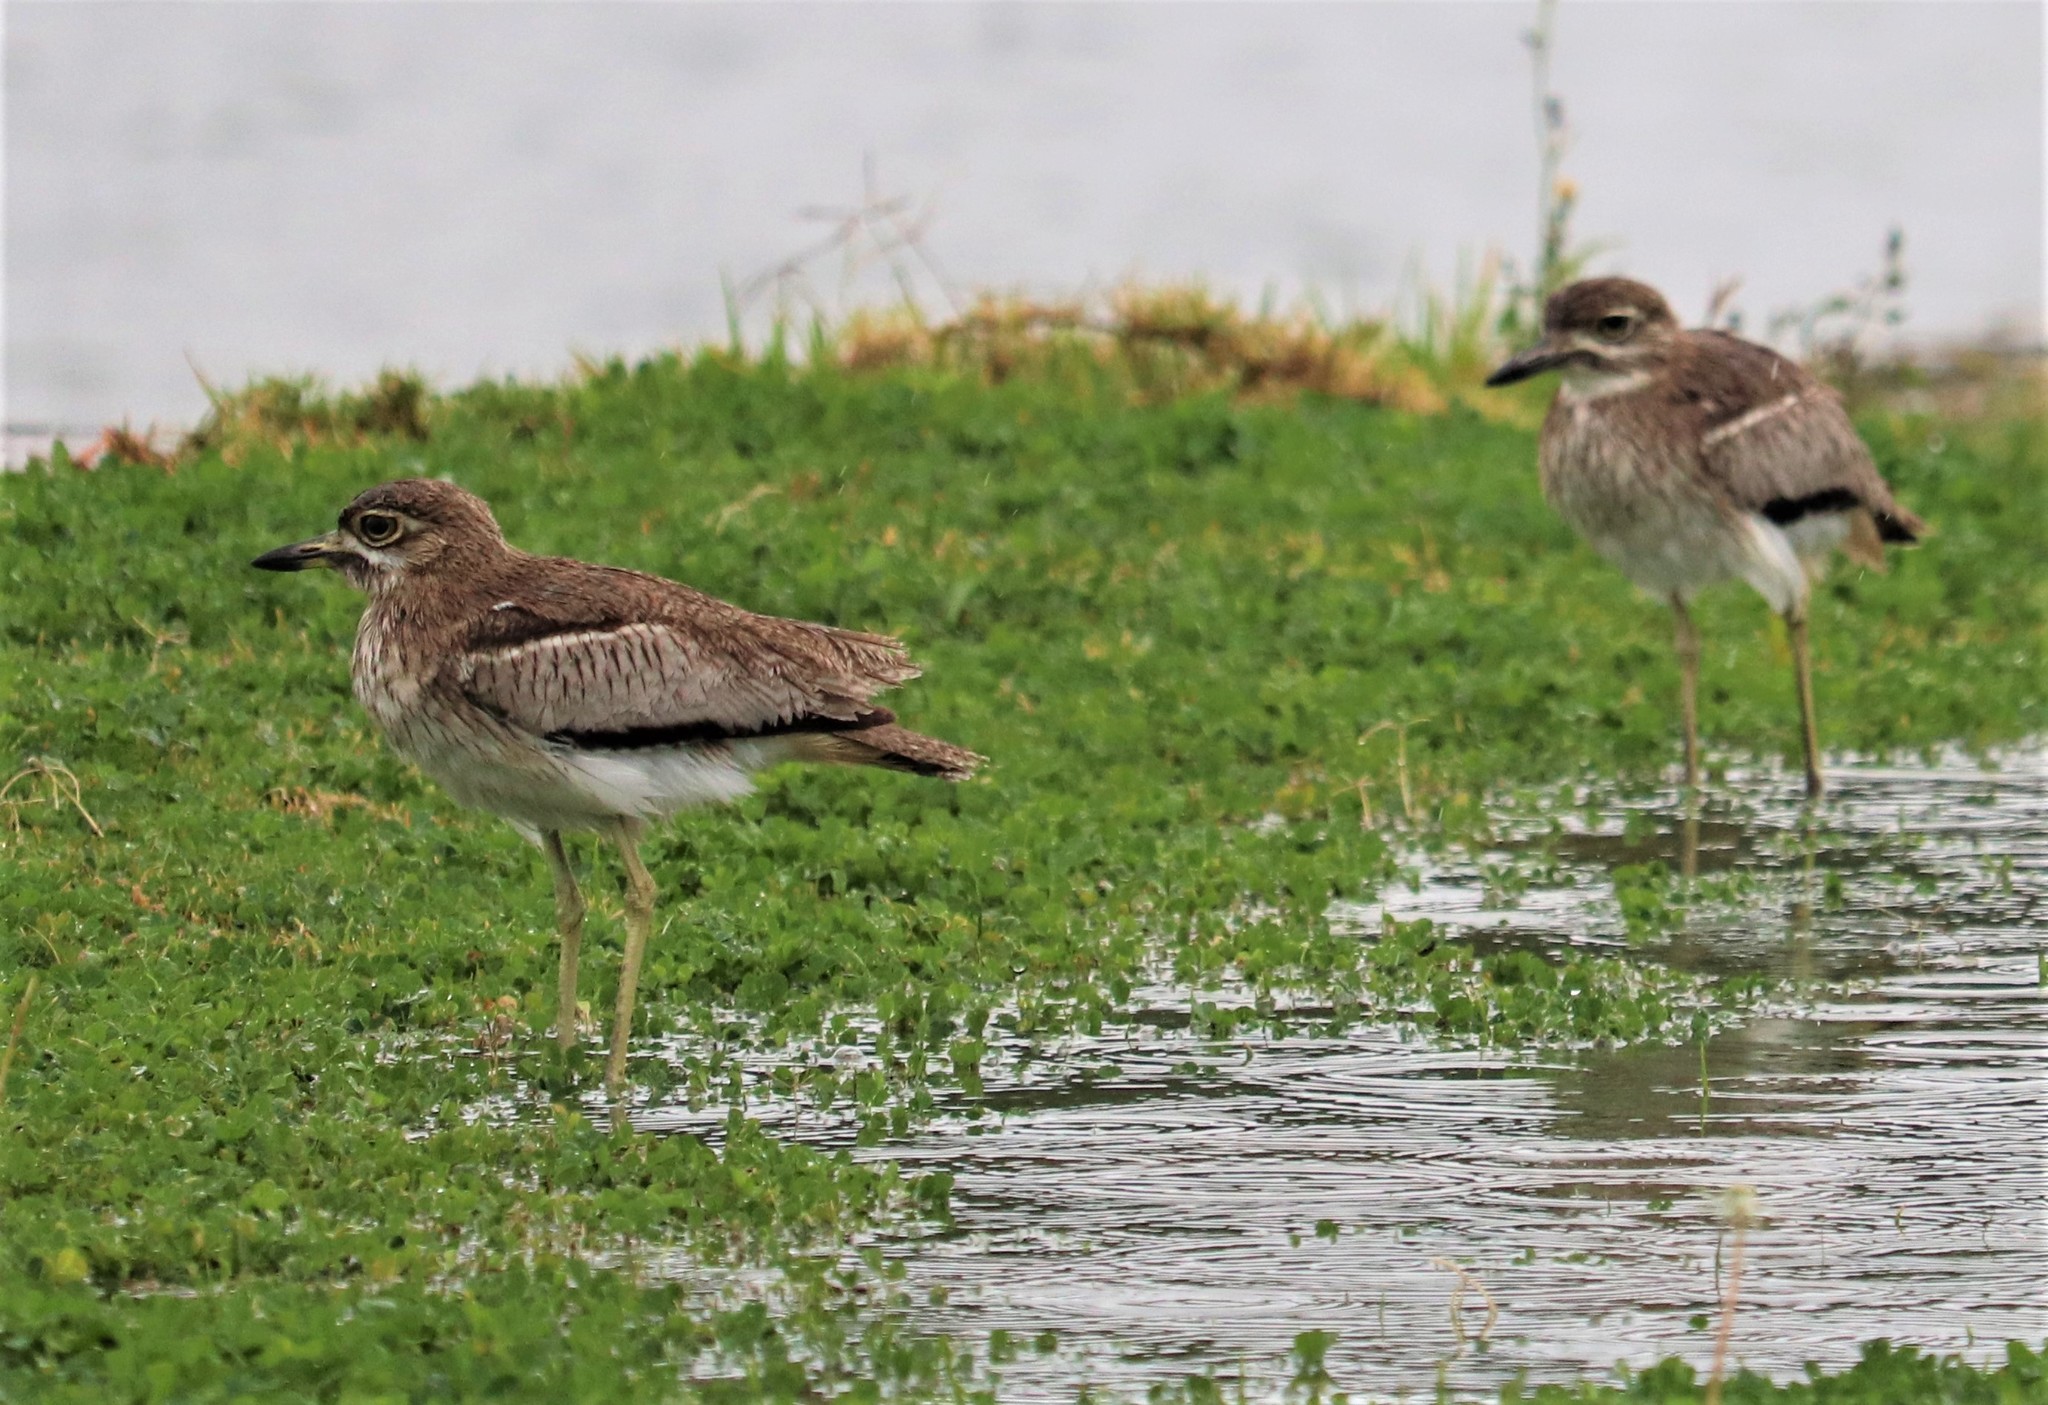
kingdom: Animalia
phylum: Chordata
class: Aves
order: Charadriiformes
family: Burhinidae
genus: Burhinus
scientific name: Burhinus vermiculatus
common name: Water thick-knee
